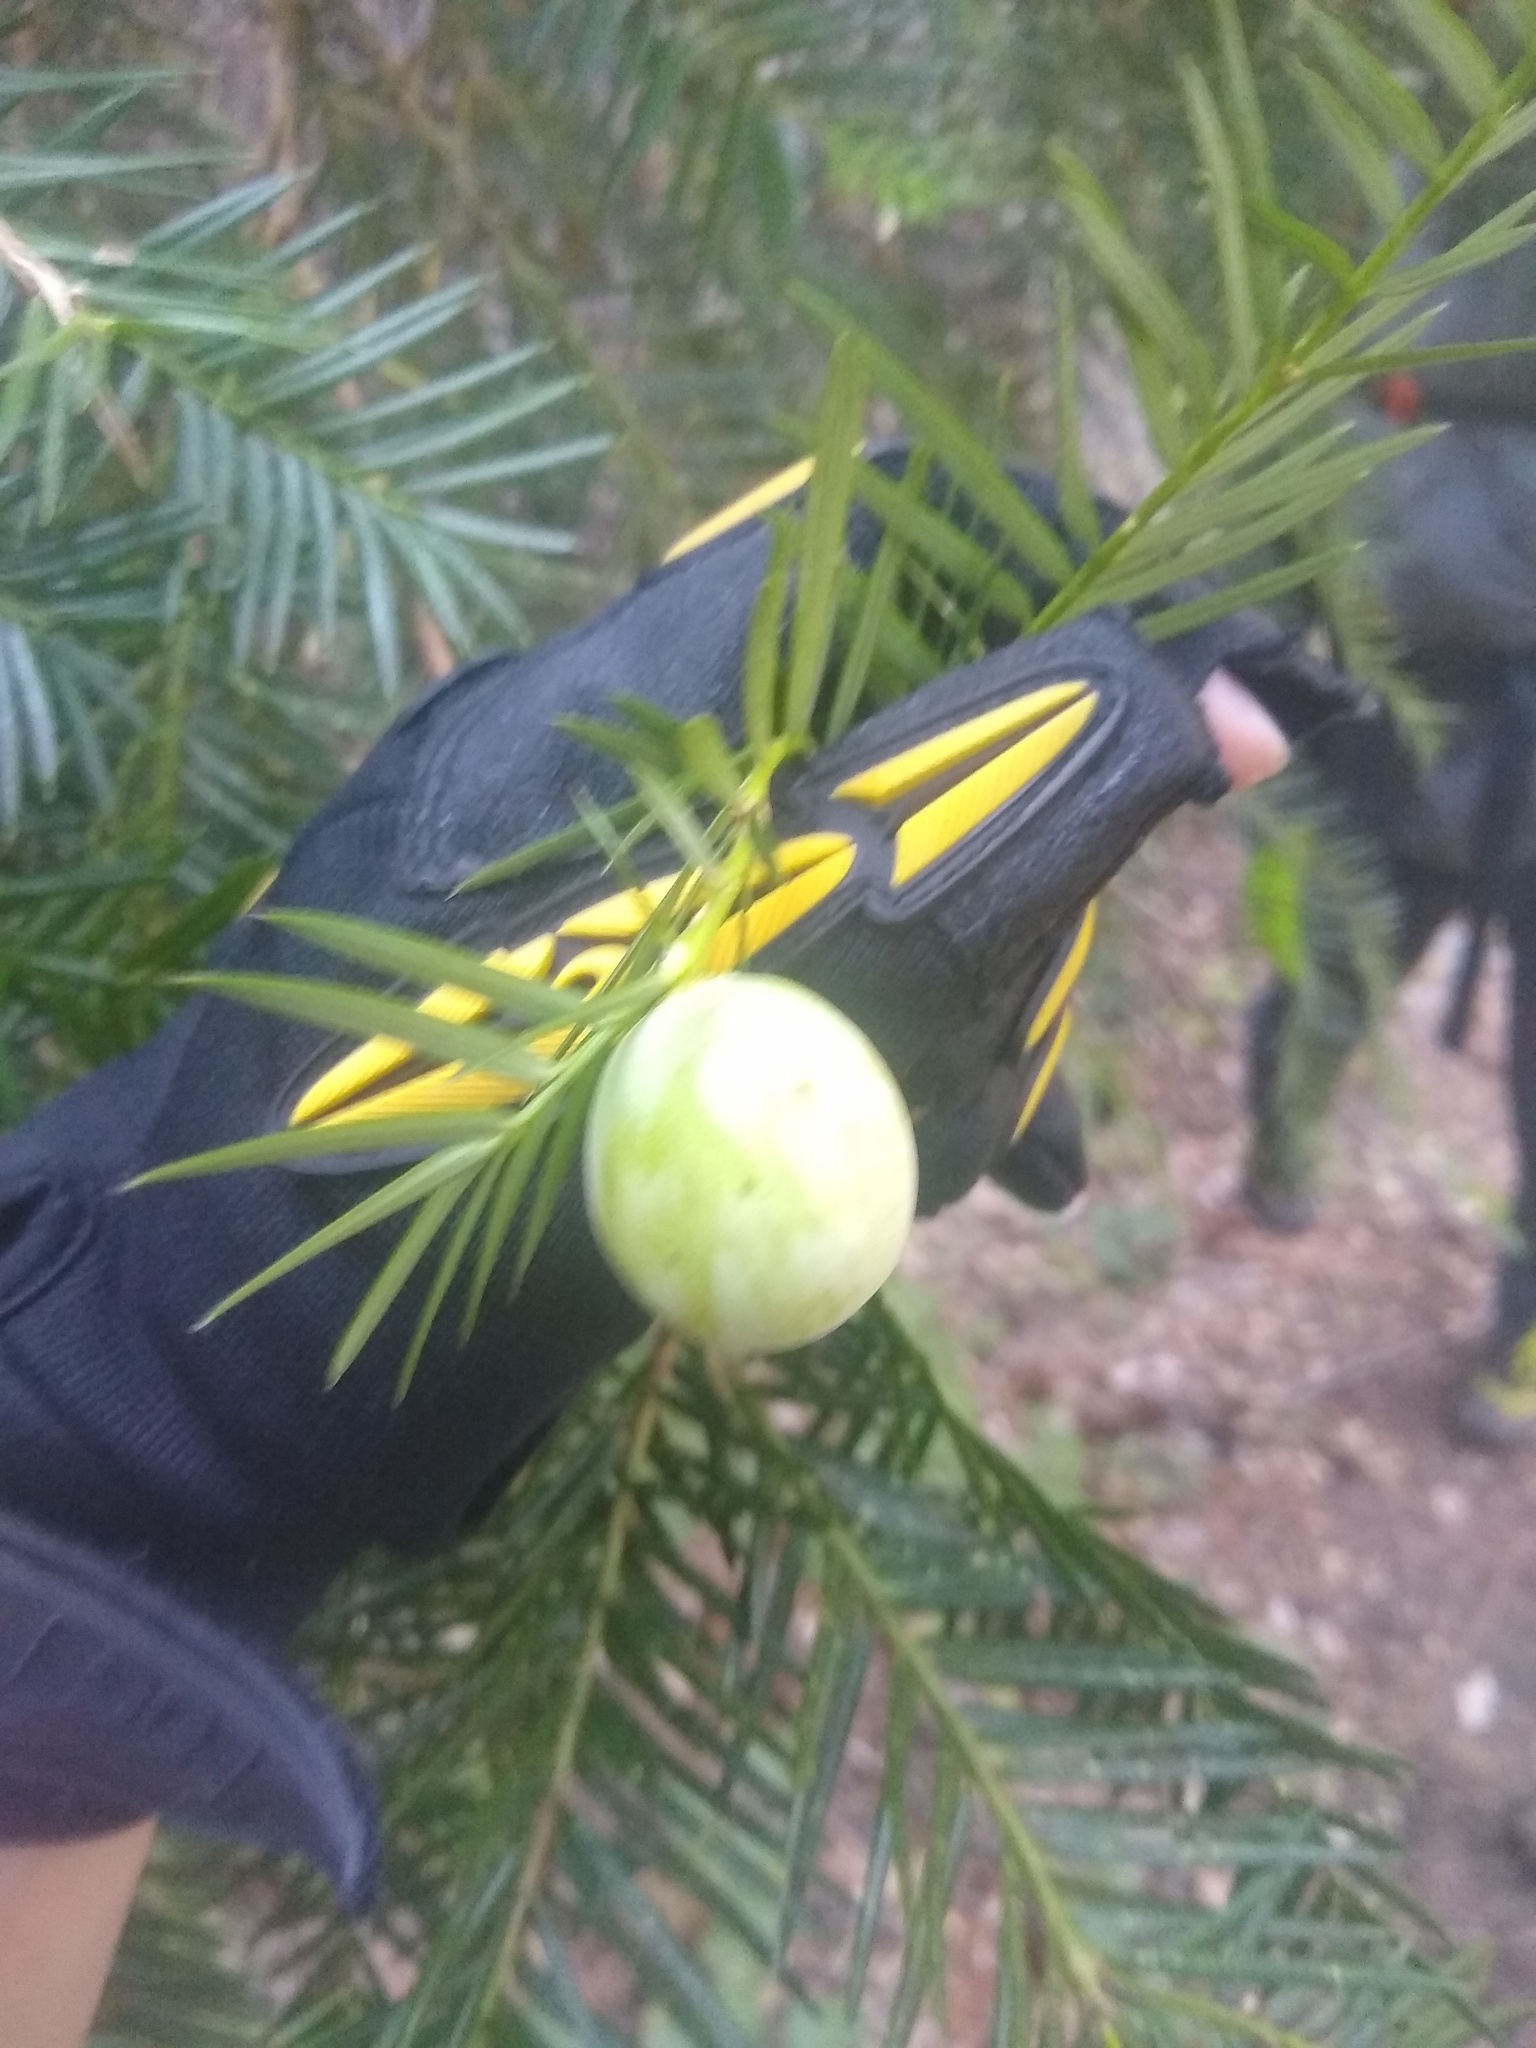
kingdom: Plantae
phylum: Tracheophyta
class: Pinopsida
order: Pinales
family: Taxaceae
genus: Torreya
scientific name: Torreya californica
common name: California torreya
